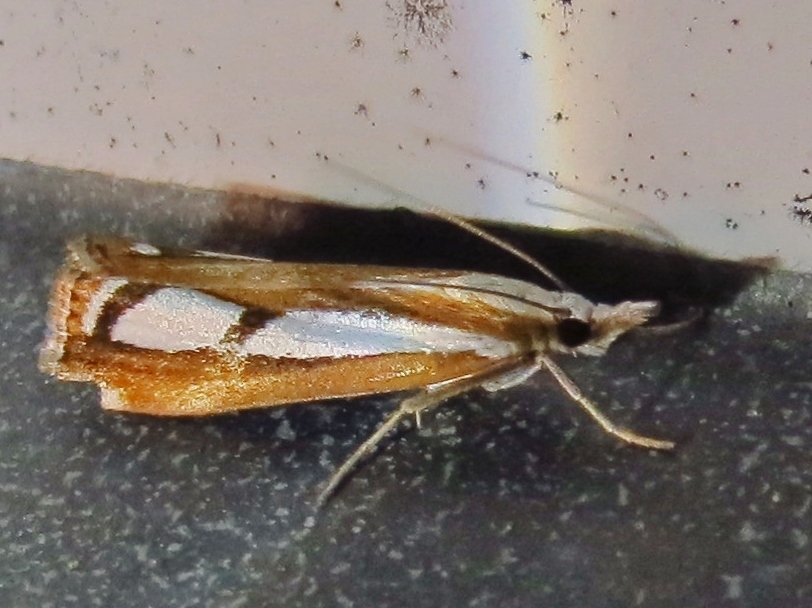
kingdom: Animalia
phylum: Arthropoda
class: Insecta
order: Lepidoptera
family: Crambidae
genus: Catoptria
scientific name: Catoptria permutatellus
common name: Scotch grass-veneer
